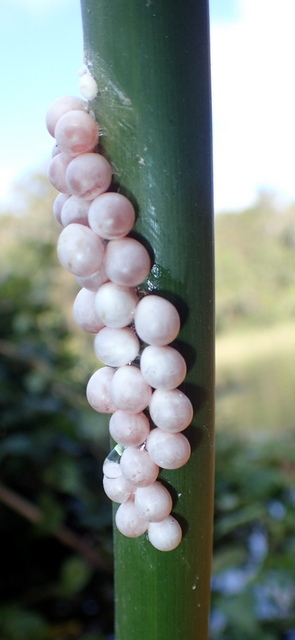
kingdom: Animalia
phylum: Mollusca
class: Gastropoda
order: Architaenioglossa
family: Ampullariidae
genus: Pomacea
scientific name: Pomacea paludosa
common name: Florida applesnail
